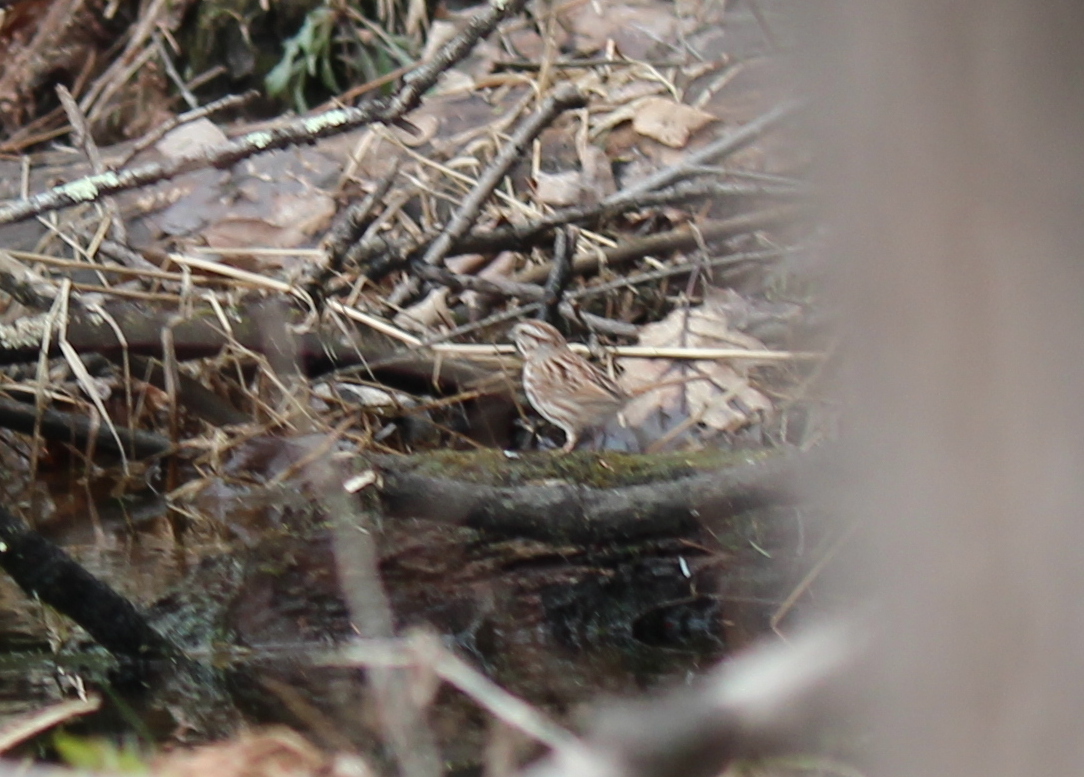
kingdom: Animalia
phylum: Chordata
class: Aves
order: Passeriformes
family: Passerellidae
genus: Melospiza
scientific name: Melospiza melodia
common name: Song sparrow
